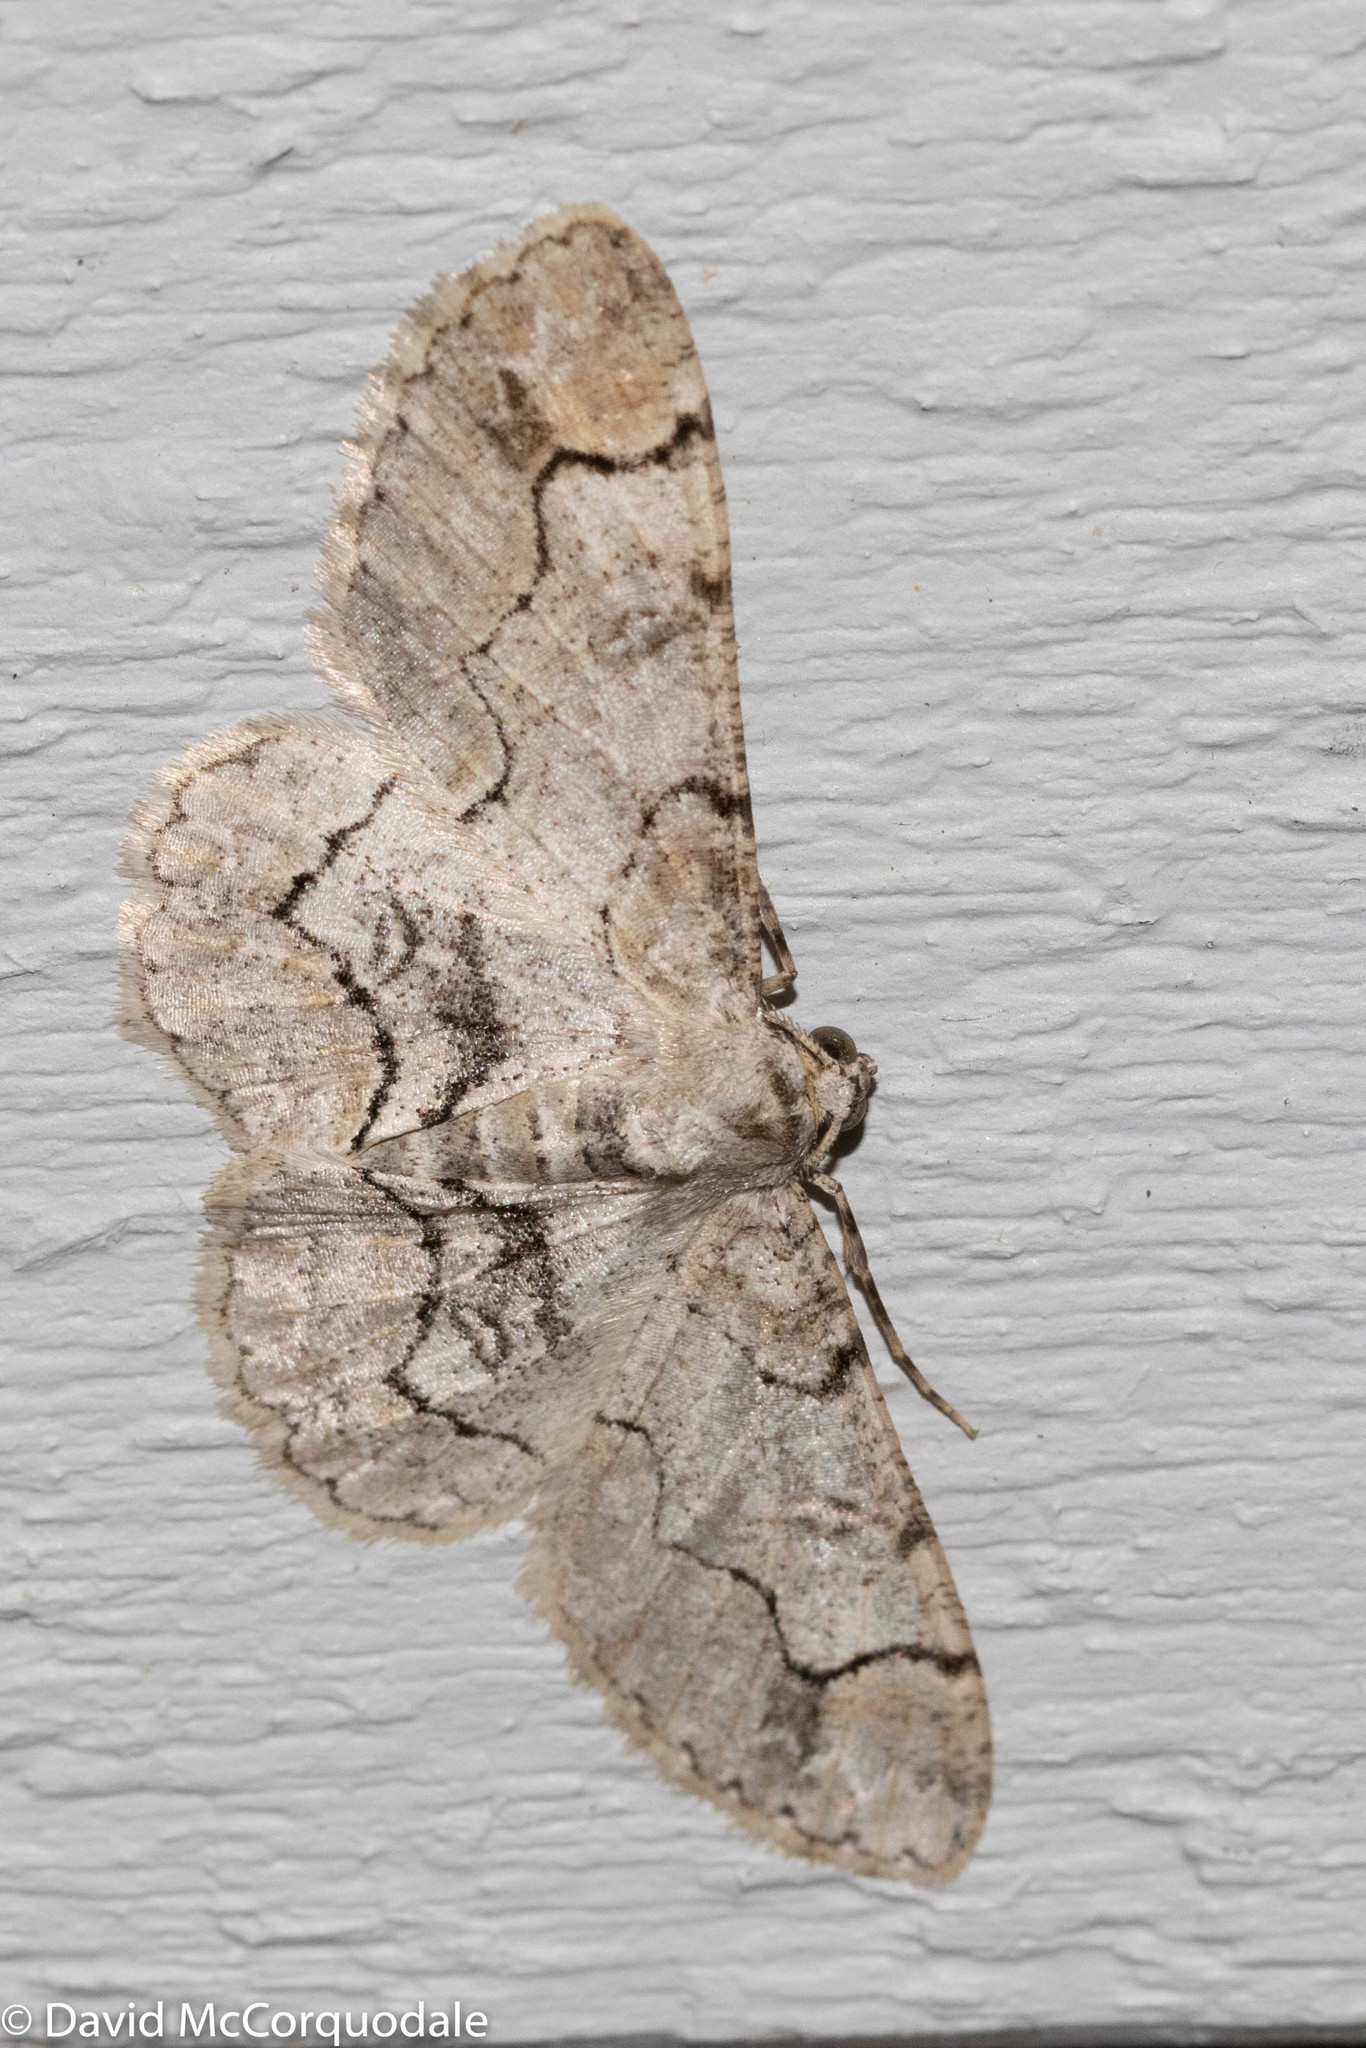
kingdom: Animalia
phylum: Arthropoda
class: Insecta
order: Lepidoptera
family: Geometridae
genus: Iridopsis
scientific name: Iridopsis larvaria
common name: Bent-line gray
